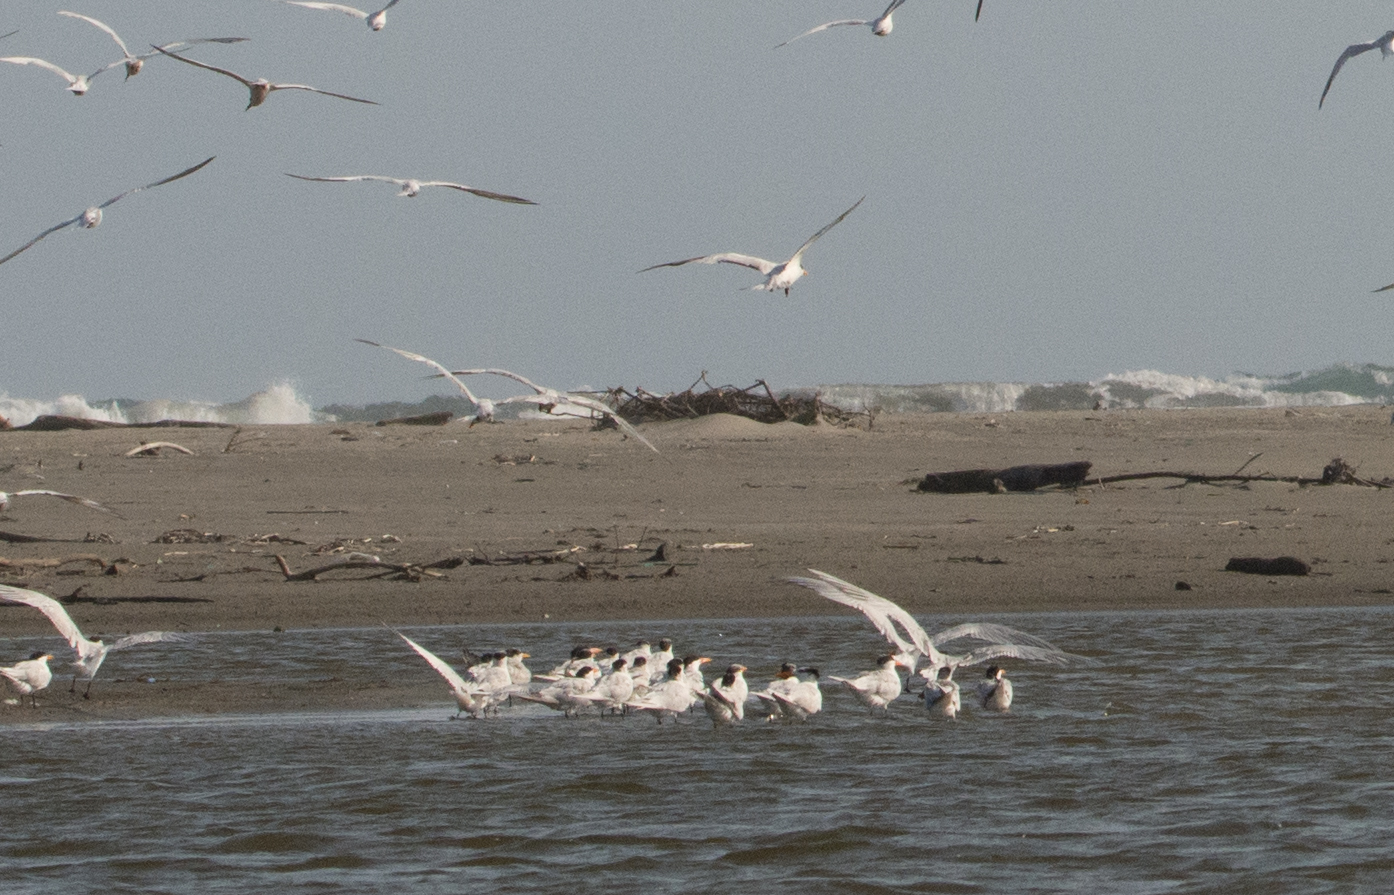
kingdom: Animalia
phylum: Chordata
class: Aves
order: Charadriiformes
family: Laridae
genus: Thalasseus
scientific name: Thalasseus maximus
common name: Royal tern
